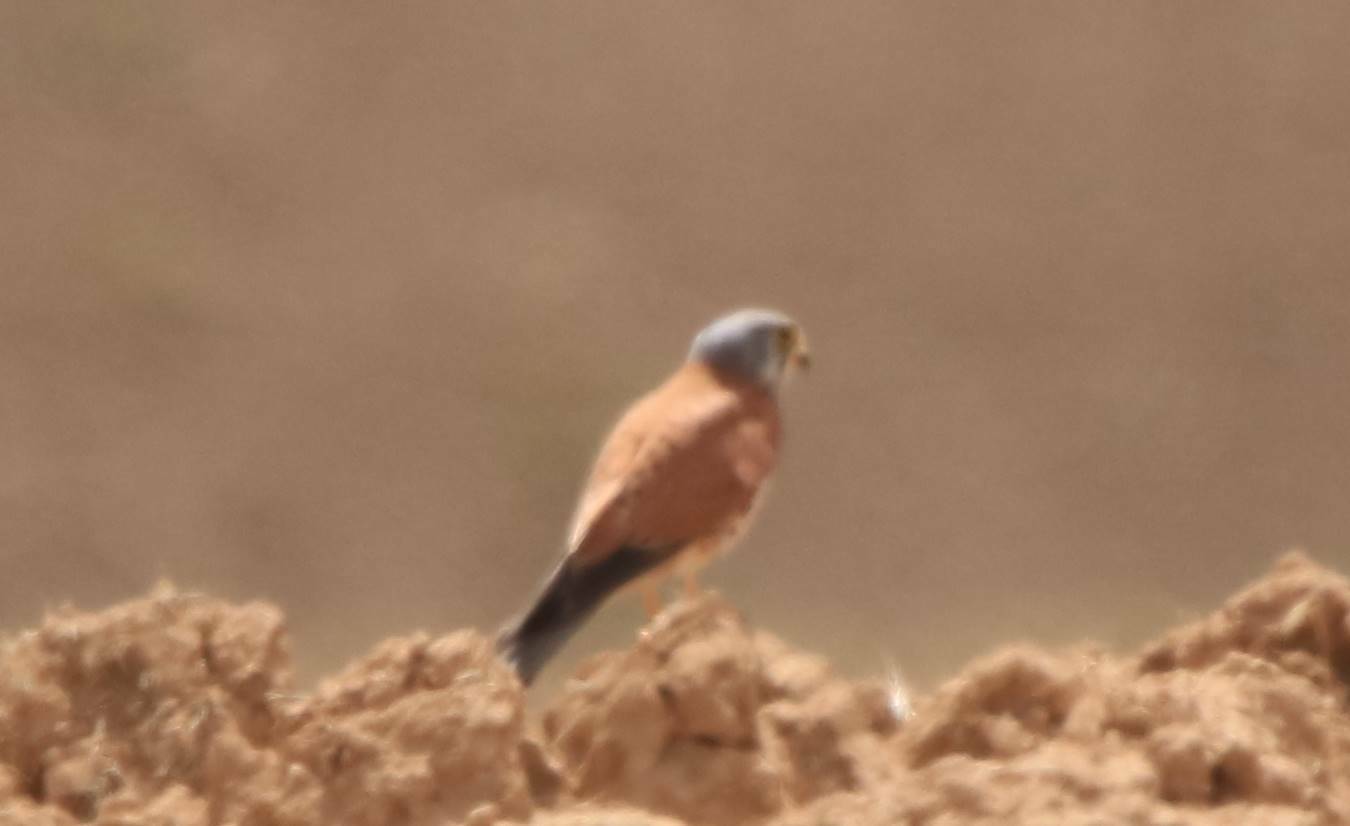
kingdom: Animalia
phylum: Chordata
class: Aves
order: Falconiformes
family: Falconidae
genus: Falco
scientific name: Falco naumanni
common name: Lesser kestrel
